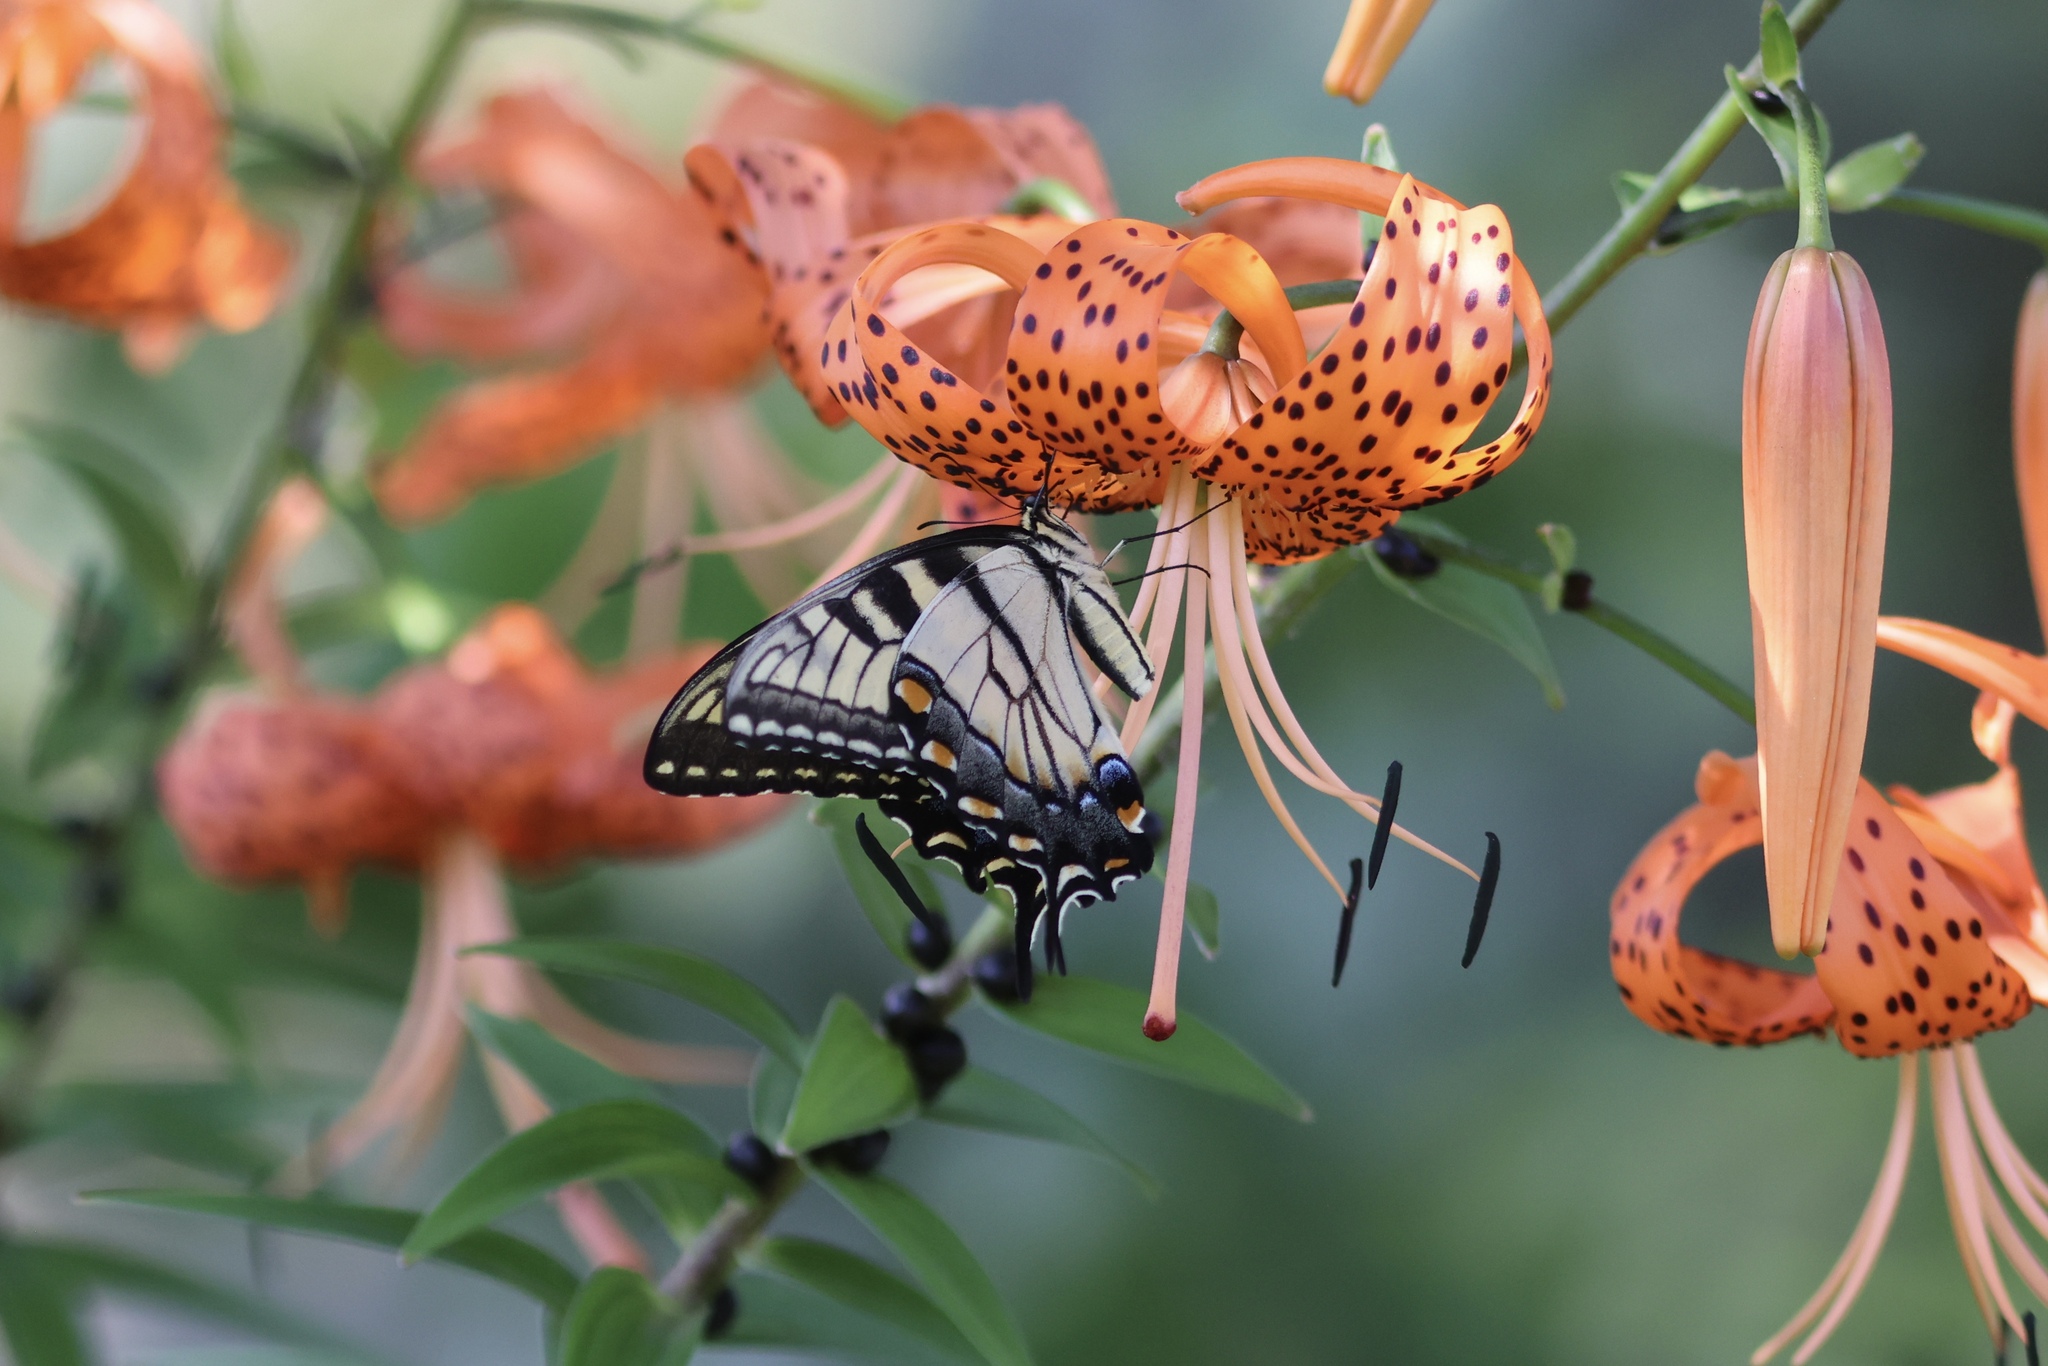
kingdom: Animalia
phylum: Arthropoda
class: Insecta
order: Lepidoptera
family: Papilionidae
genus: Papilio
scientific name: Papilio glaucus
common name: Tiger swallowtail
